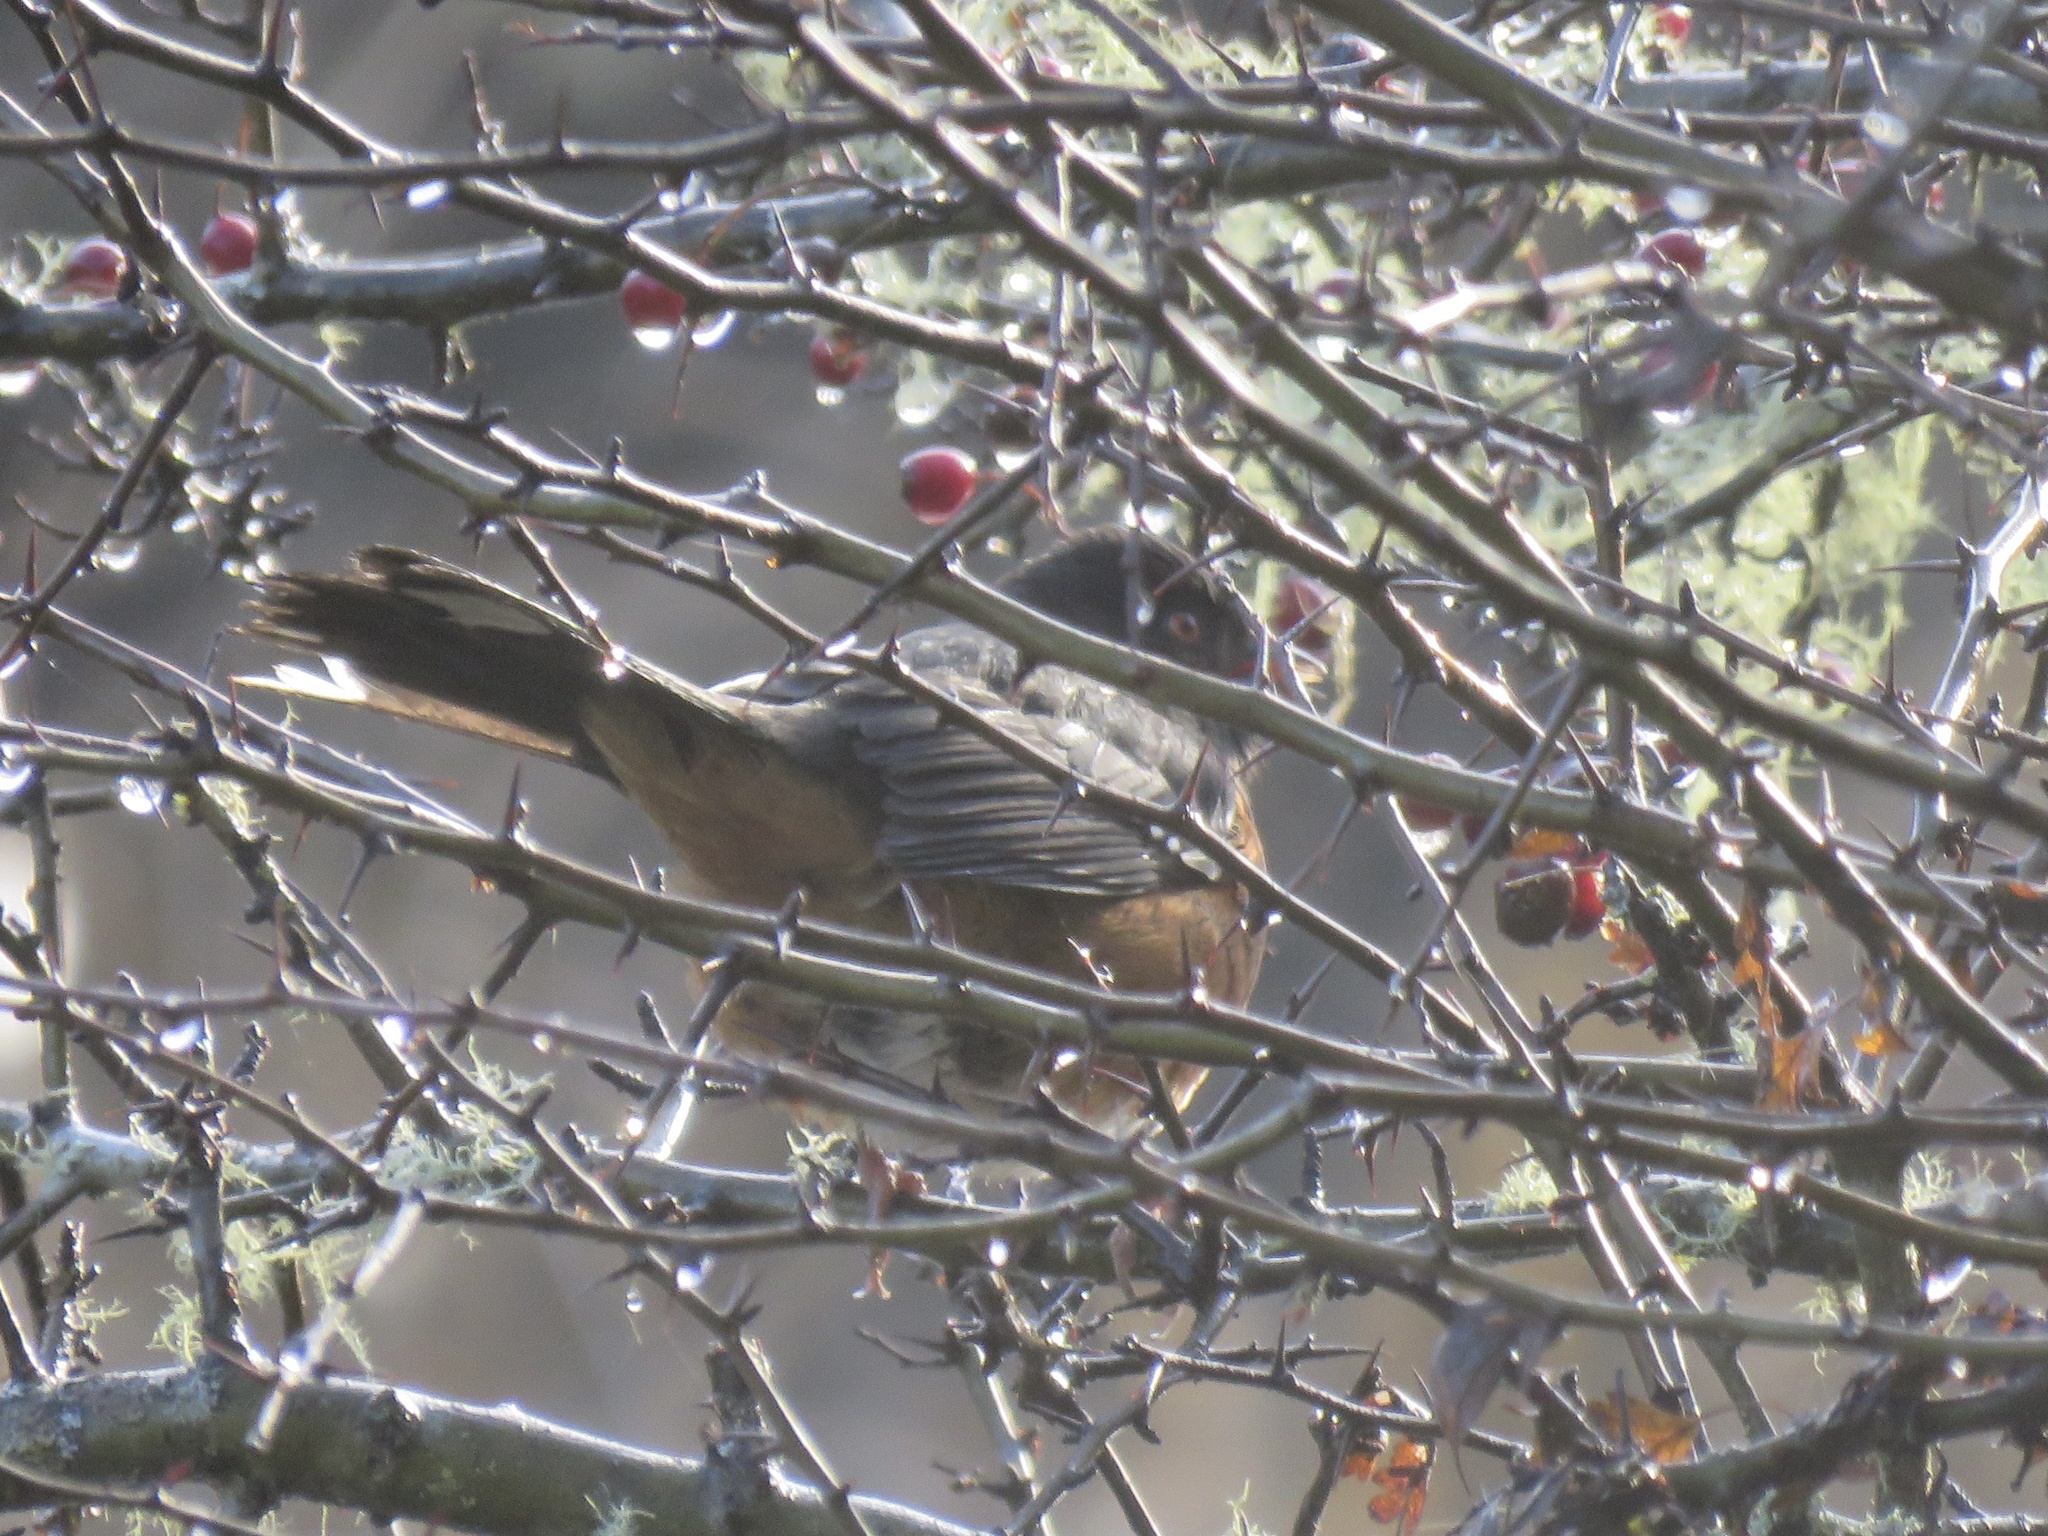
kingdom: Animalia
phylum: Chordata
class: Aves
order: Passeriformes
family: Passerellidae
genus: Pipilo
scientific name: Pipilo maculatus
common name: Spotted towhee
